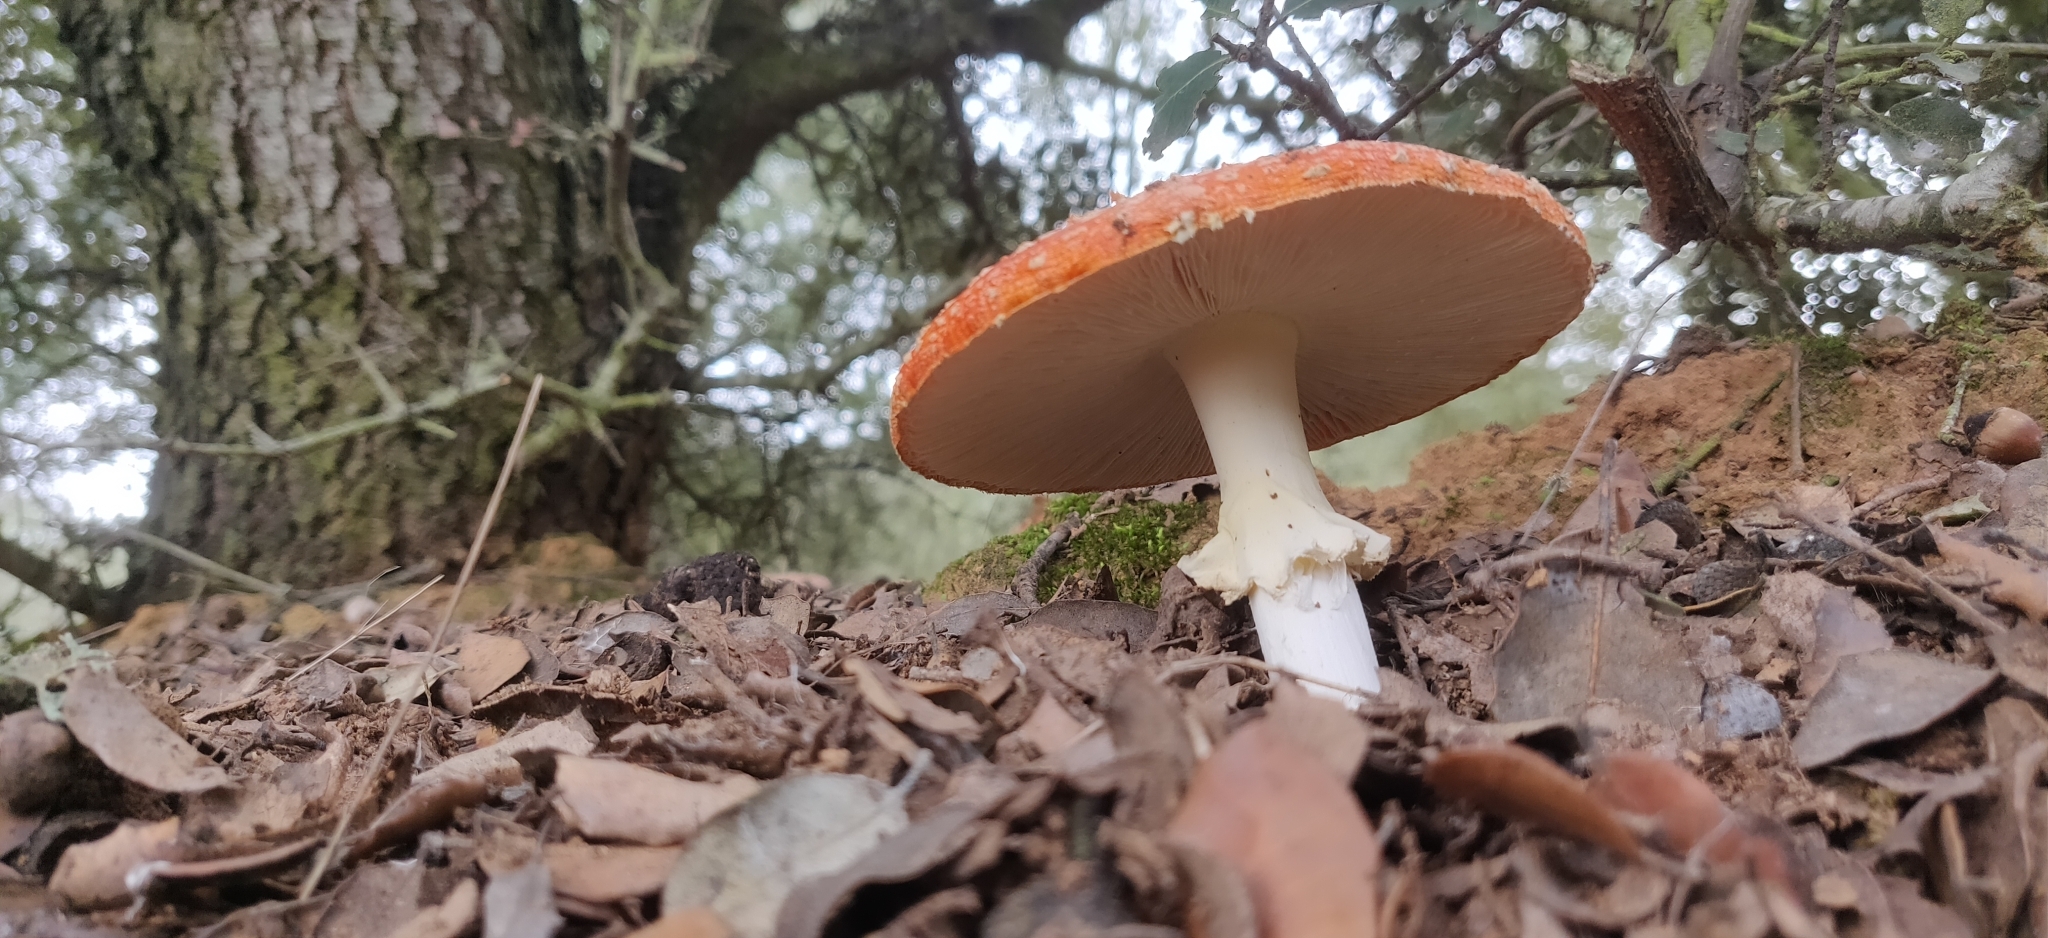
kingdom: Fungi
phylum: Basidiomycota
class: Agaricomycetes
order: Agaricales
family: Amanitaceae
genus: Amanita
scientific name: Amanita muscaria
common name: Fly agaric
